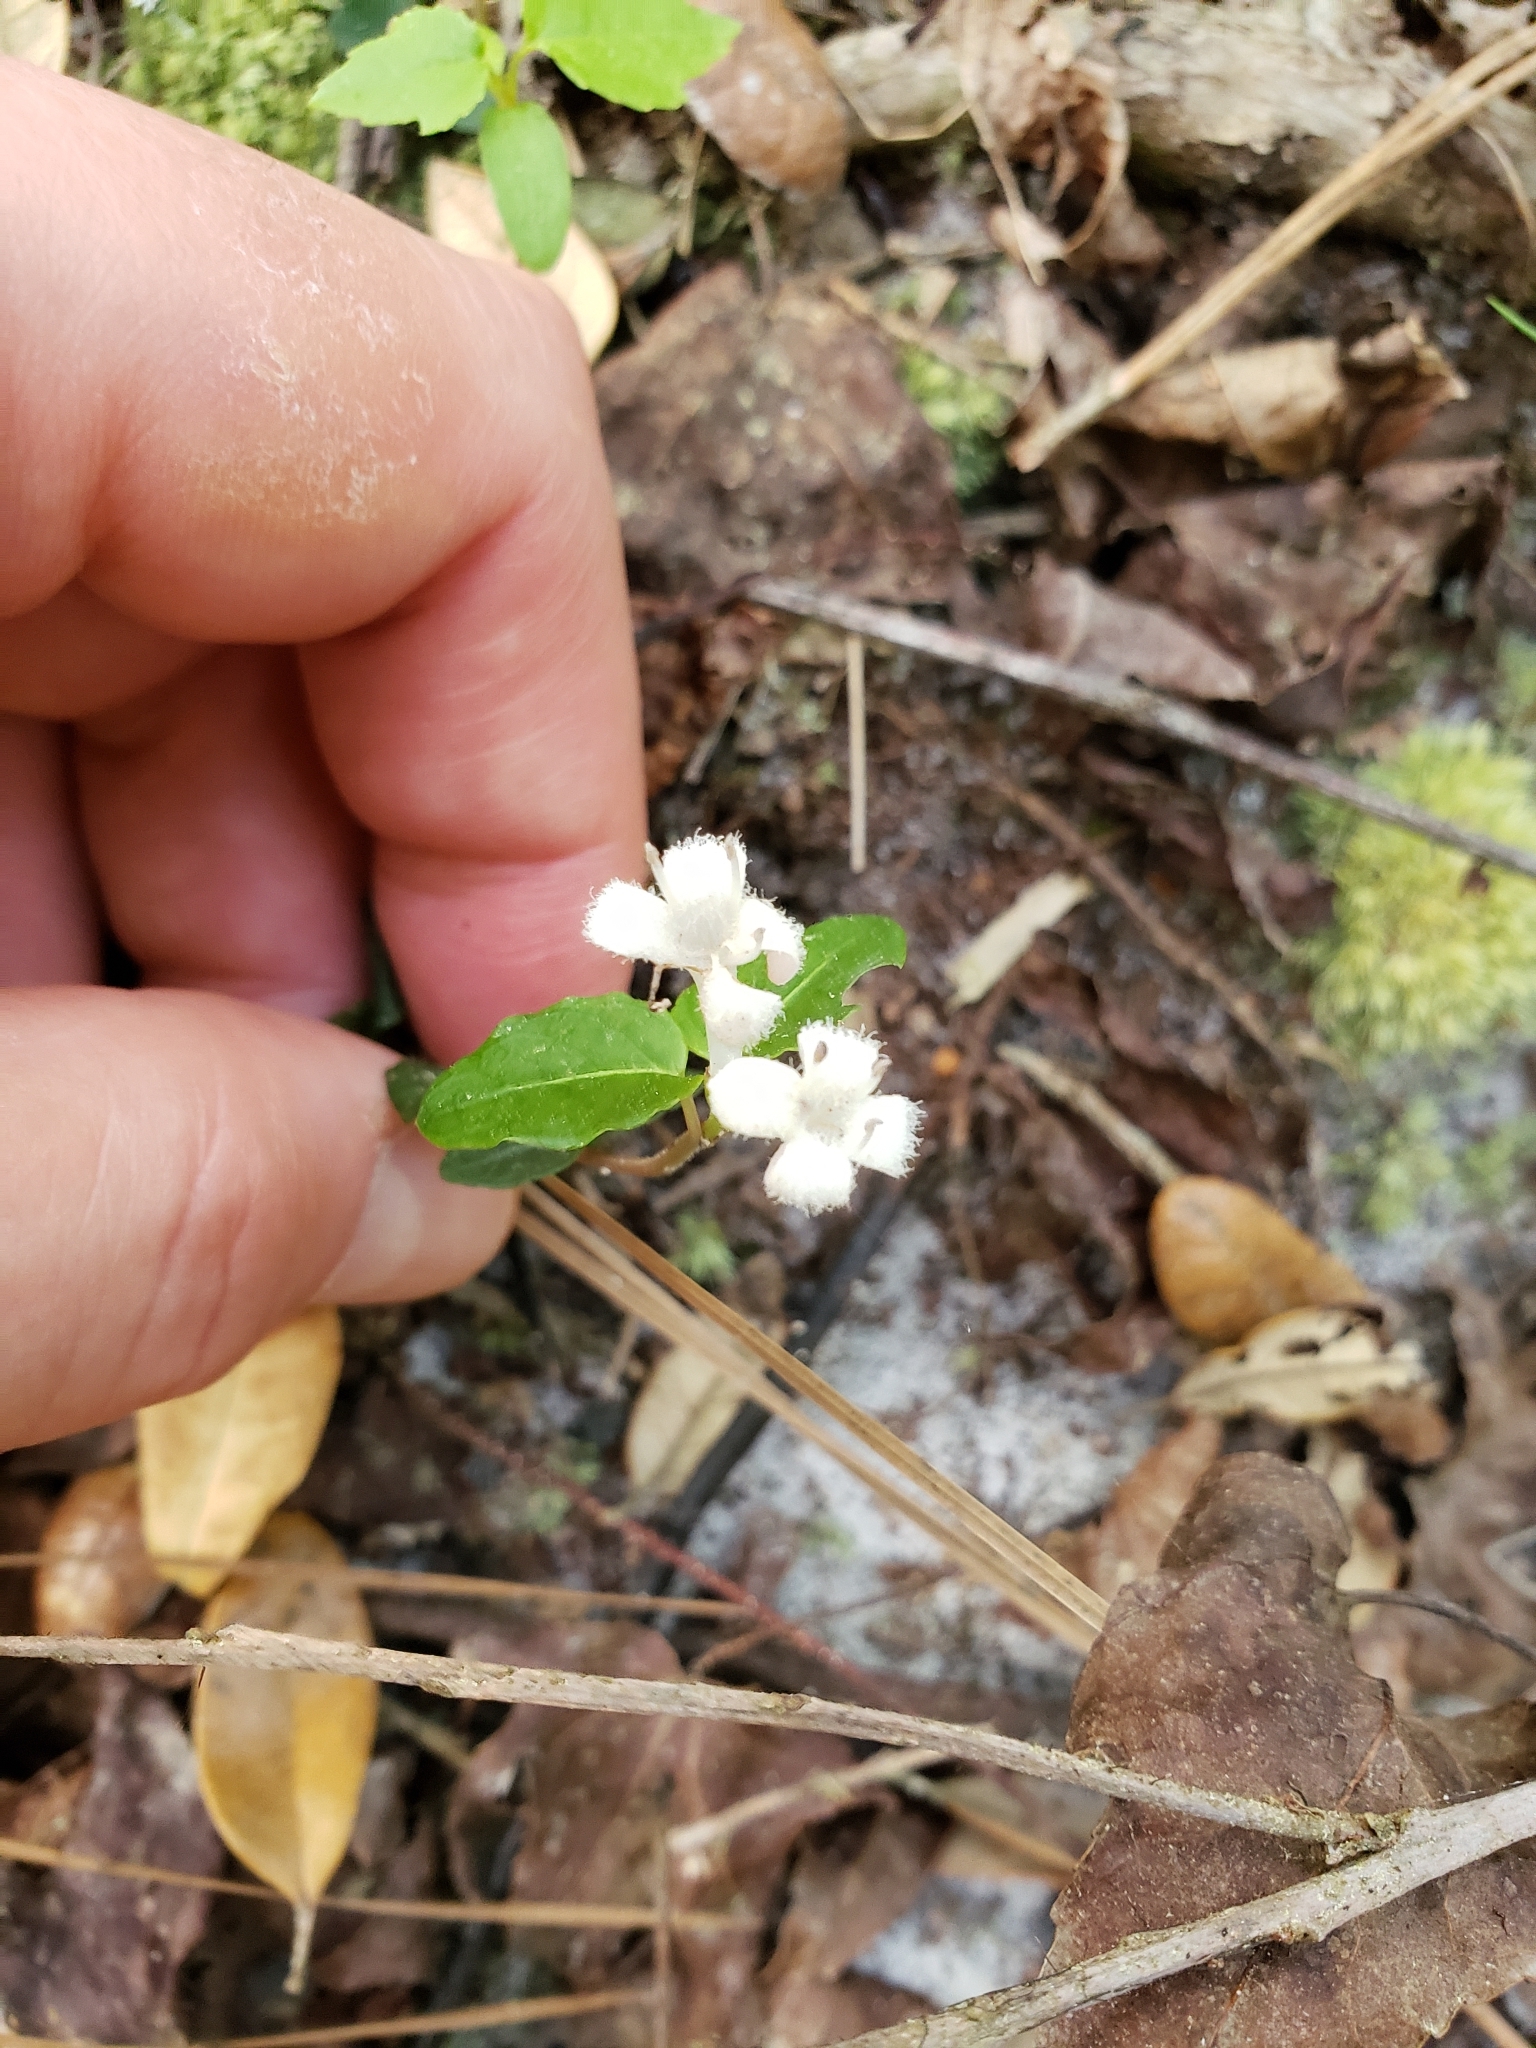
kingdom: Plantae
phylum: Tracheophyta
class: Magnoliopsida
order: Gentianales
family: Rubiaceae
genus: Mitchella
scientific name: Mitchella repens
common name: Partridge-berry
